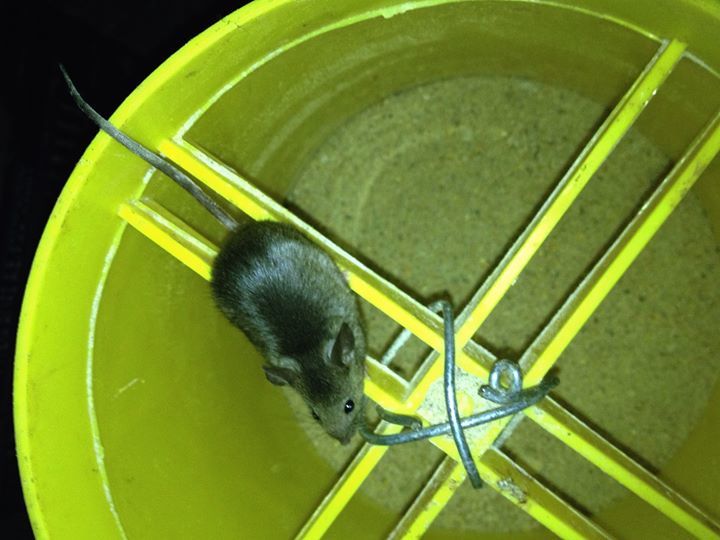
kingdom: Animalia
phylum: Chordata
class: Mammalia
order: Rodentia
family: Muridae
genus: Mus
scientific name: Mus musculus
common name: House mouse
